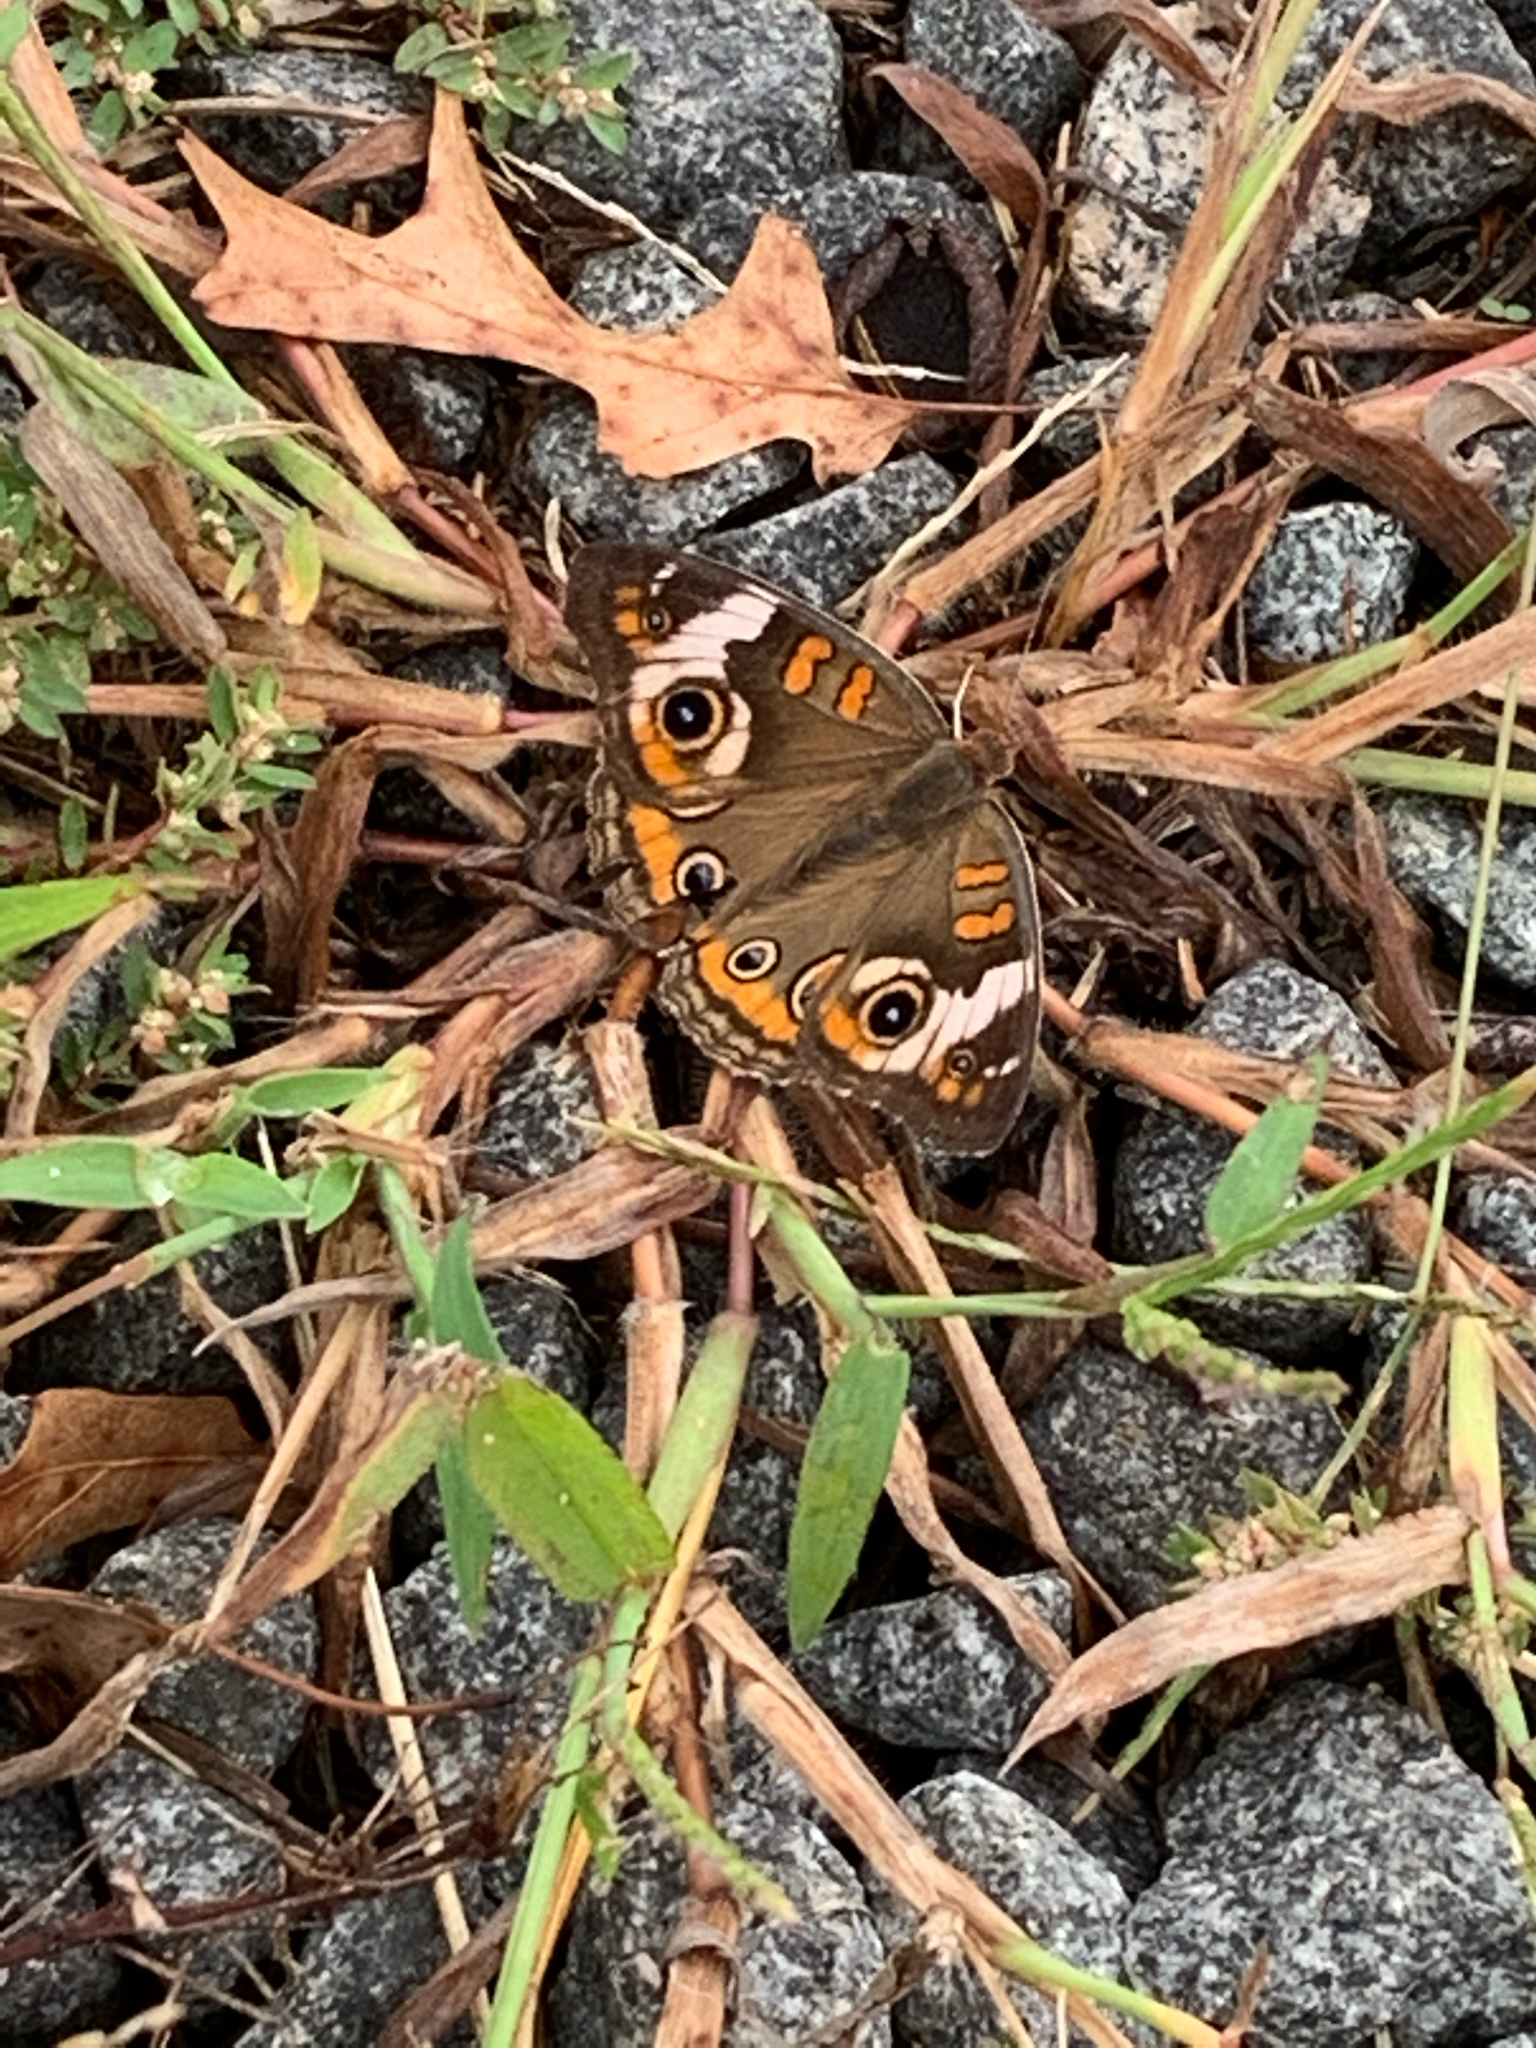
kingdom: Animalia
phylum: Arthropoda
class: Insecta
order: Lepidoptera
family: Nymphalidae
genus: Junonia
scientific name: Junonia coenia
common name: Common buckeye
